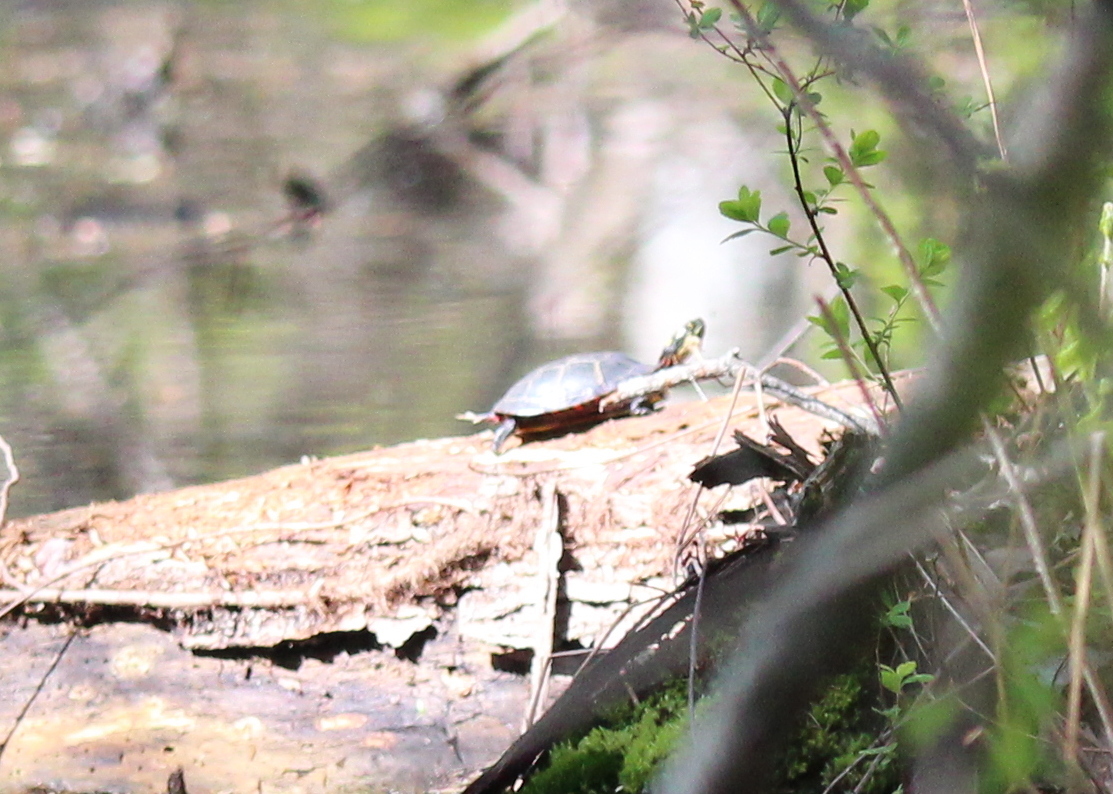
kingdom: Animalia
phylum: Chordata
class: Testudines
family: Emydidae
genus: Chrysemys
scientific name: Chrysemys picta
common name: Painted turtle
